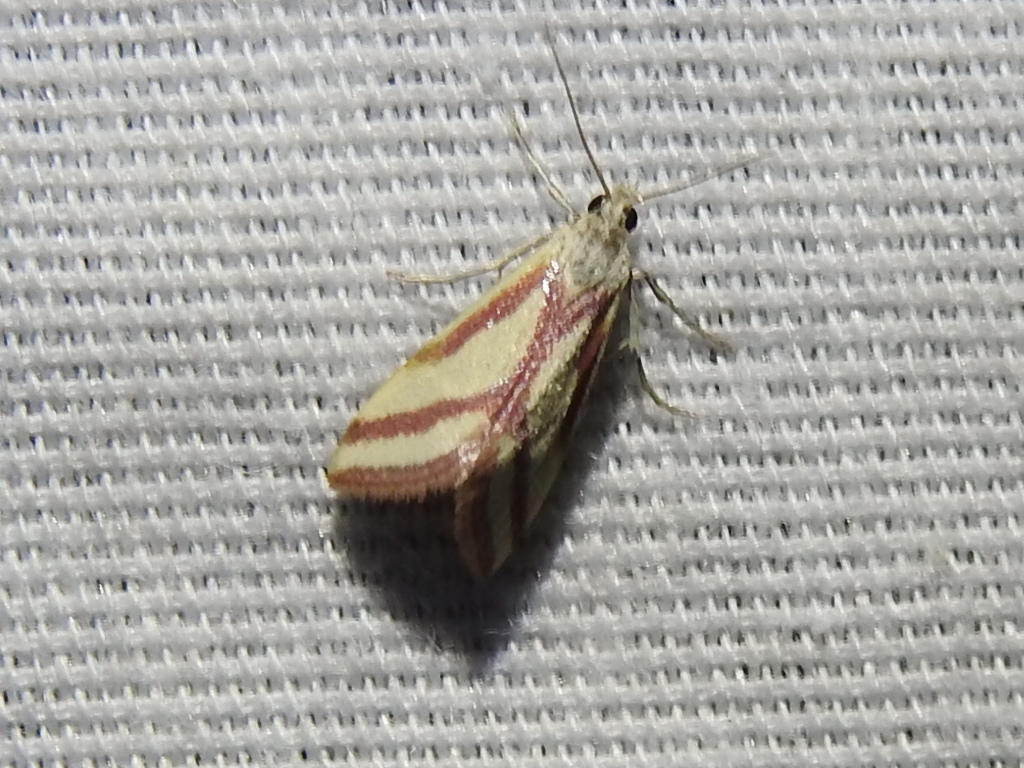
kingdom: Animalia
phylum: Arthropoda
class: Insecta
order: Lepidoptera
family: Crambidae
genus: Microtheoris
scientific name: Microtheoris vibicalis
